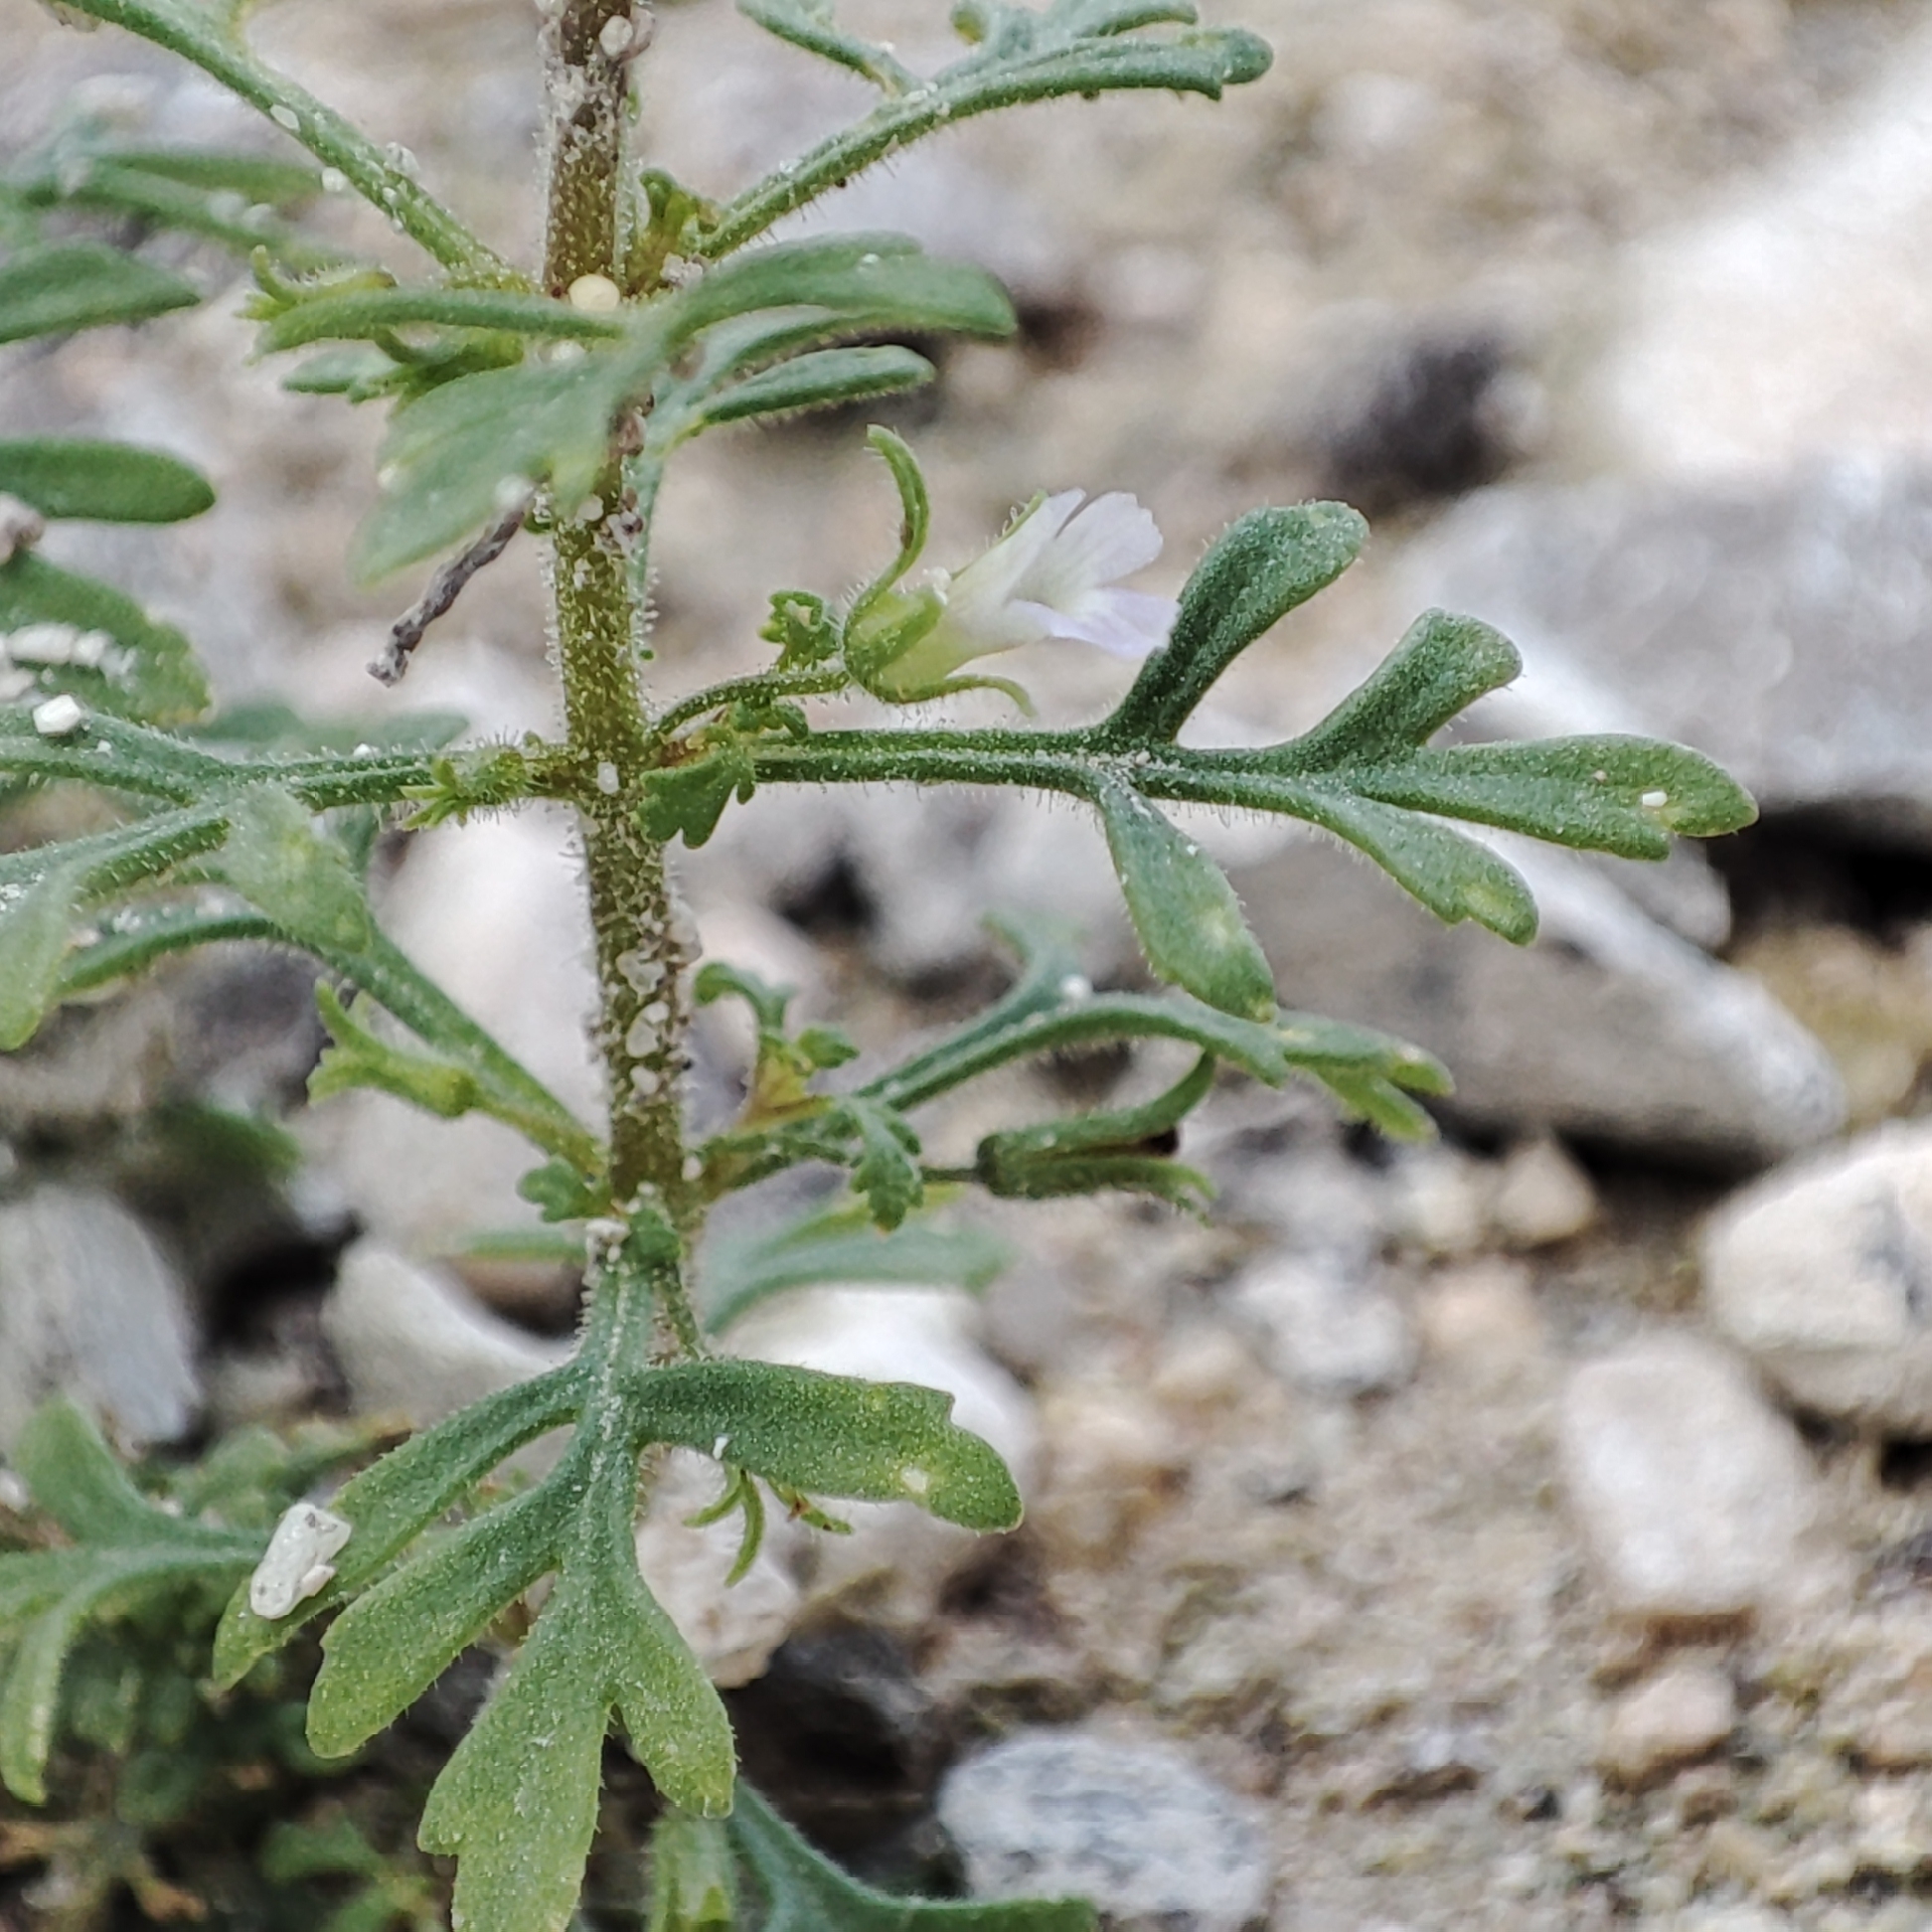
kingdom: Plantae
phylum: Tracheophyta
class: Magnoliopsida
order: Lamiales
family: Plantaginaceae
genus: Leucospora
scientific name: Leucospora multifida
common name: Narrow-leaf paleseed
